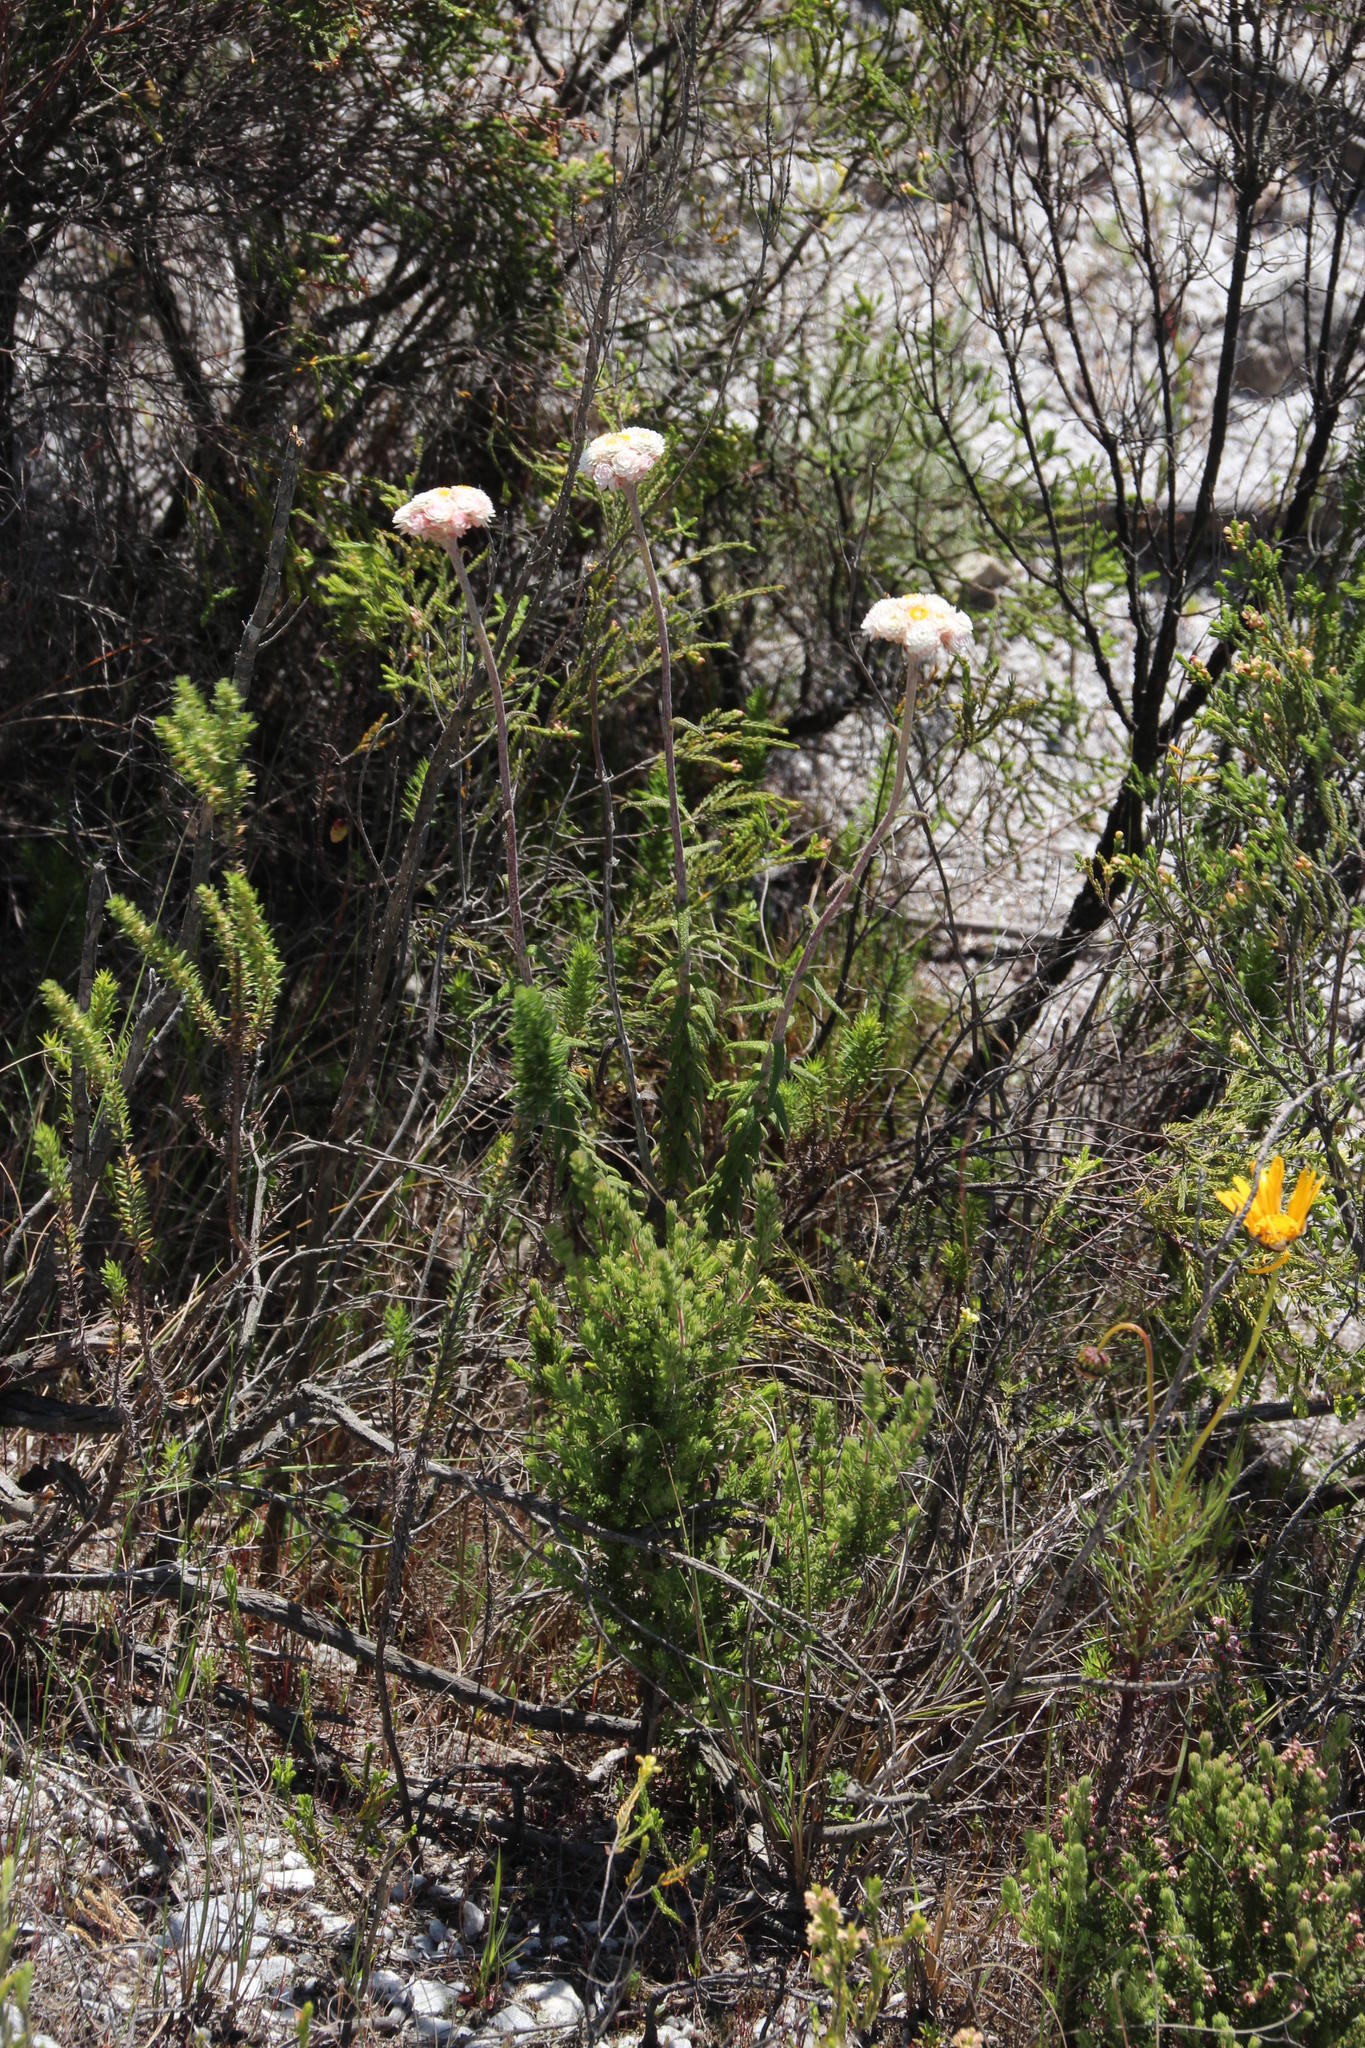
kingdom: Plantae
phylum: Tracheophyta
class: Magnoliopsida
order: Asterales
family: Asteraceae
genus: Helichrysum
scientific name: Helichrysum felinum
